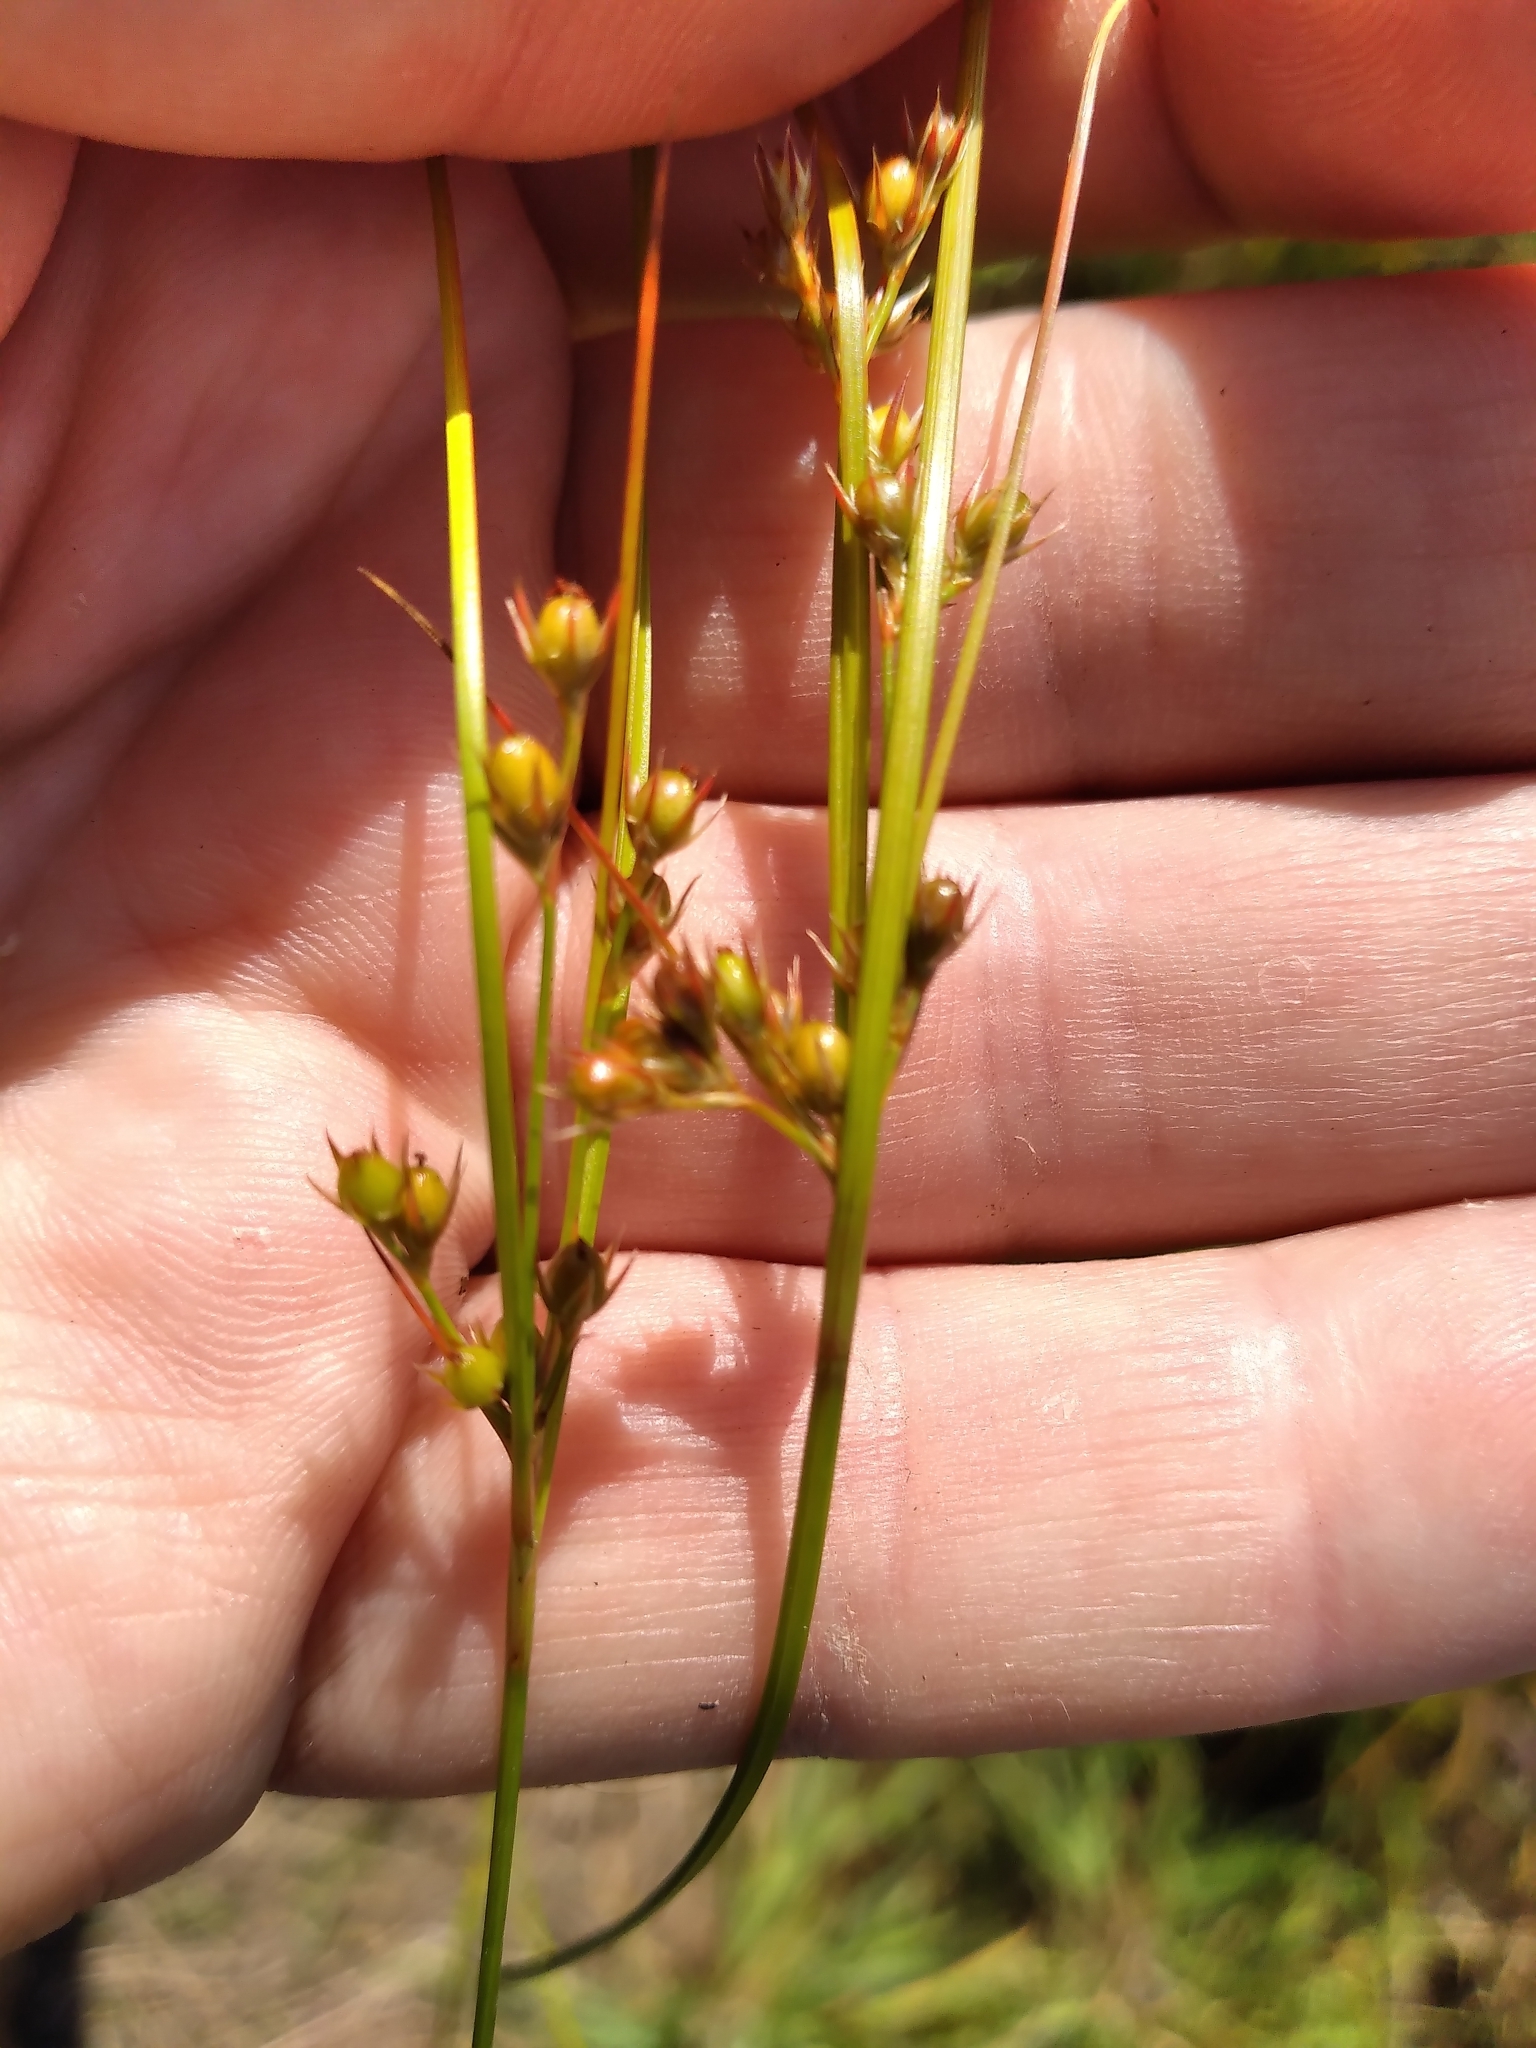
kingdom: Plantae
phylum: Tracheophyta
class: Liliopsida
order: Poales
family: Juncaceae
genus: Juncus
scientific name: Juncus dichotomus
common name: Forked rush
